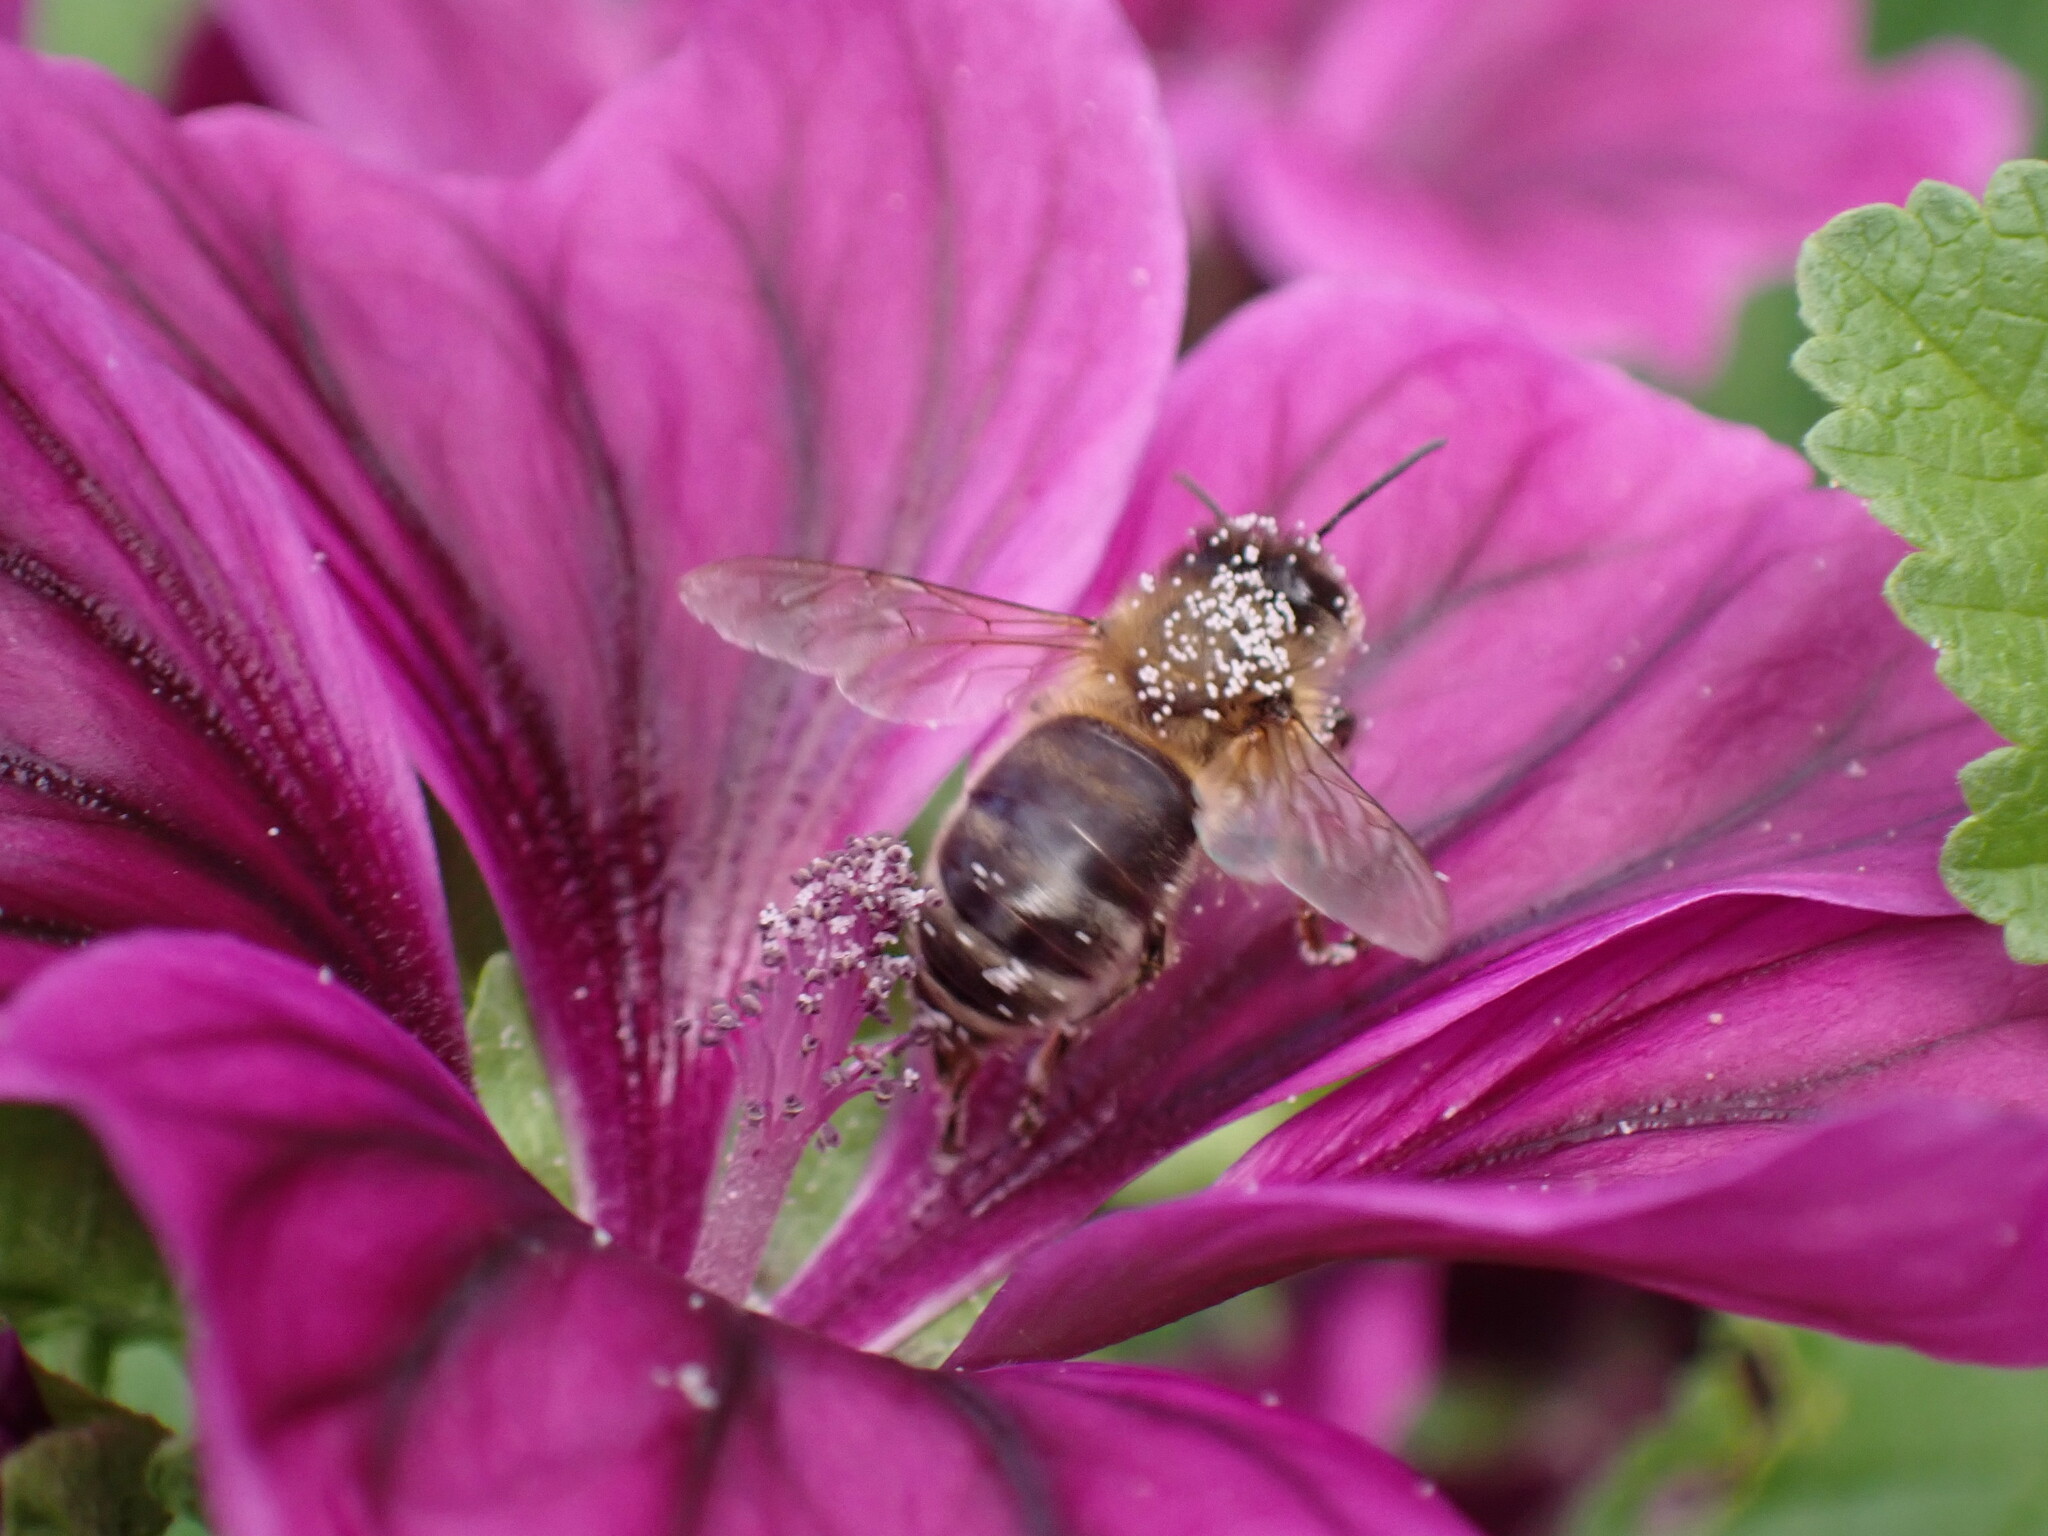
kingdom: Animalia
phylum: Arthropoda
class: Insecta
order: Hymenoptera
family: Apidae
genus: Apis
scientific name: Apis mellifera
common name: Honey bee
